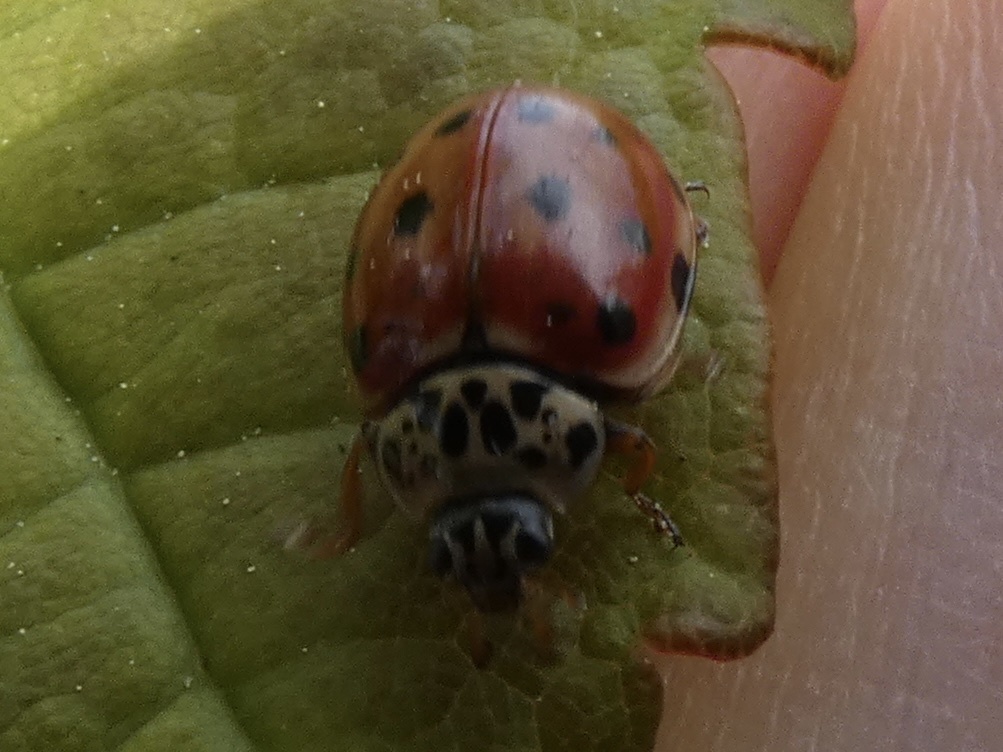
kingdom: Animalia
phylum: Arthropoda
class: Insecta
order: Coleoptera
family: Coccinellidae
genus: Harmonia
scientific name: Harmonia quadripunctata
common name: Cream-streaked ladybird
